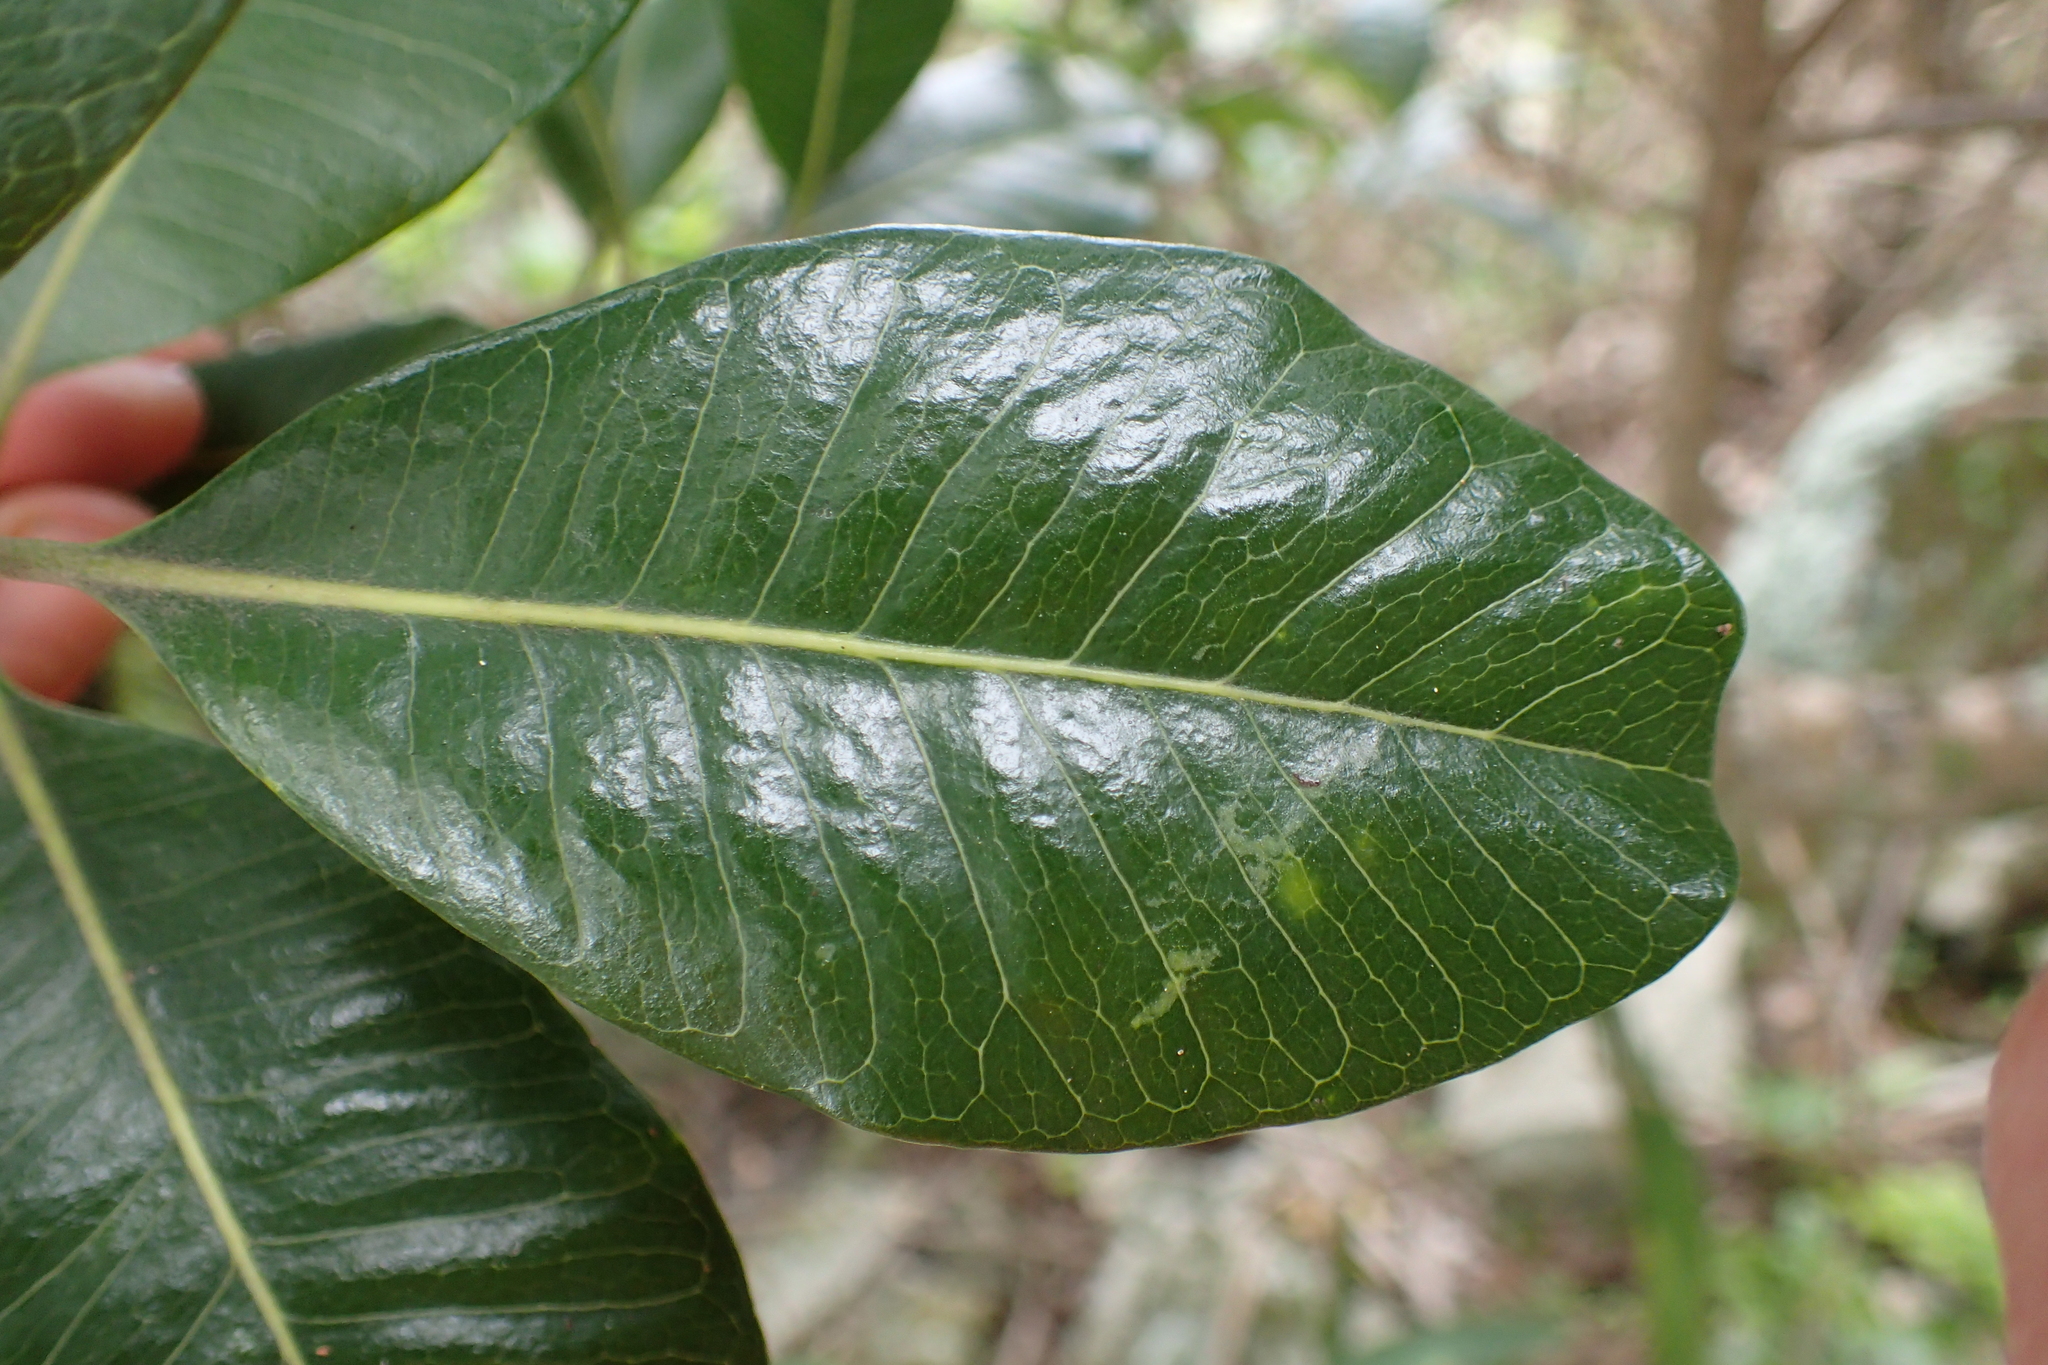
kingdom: Plantae
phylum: Tracheophyta
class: Magnoliopsida
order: Ericales
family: Sapotaceae
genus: Planchonella
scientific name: Planchonella costata
